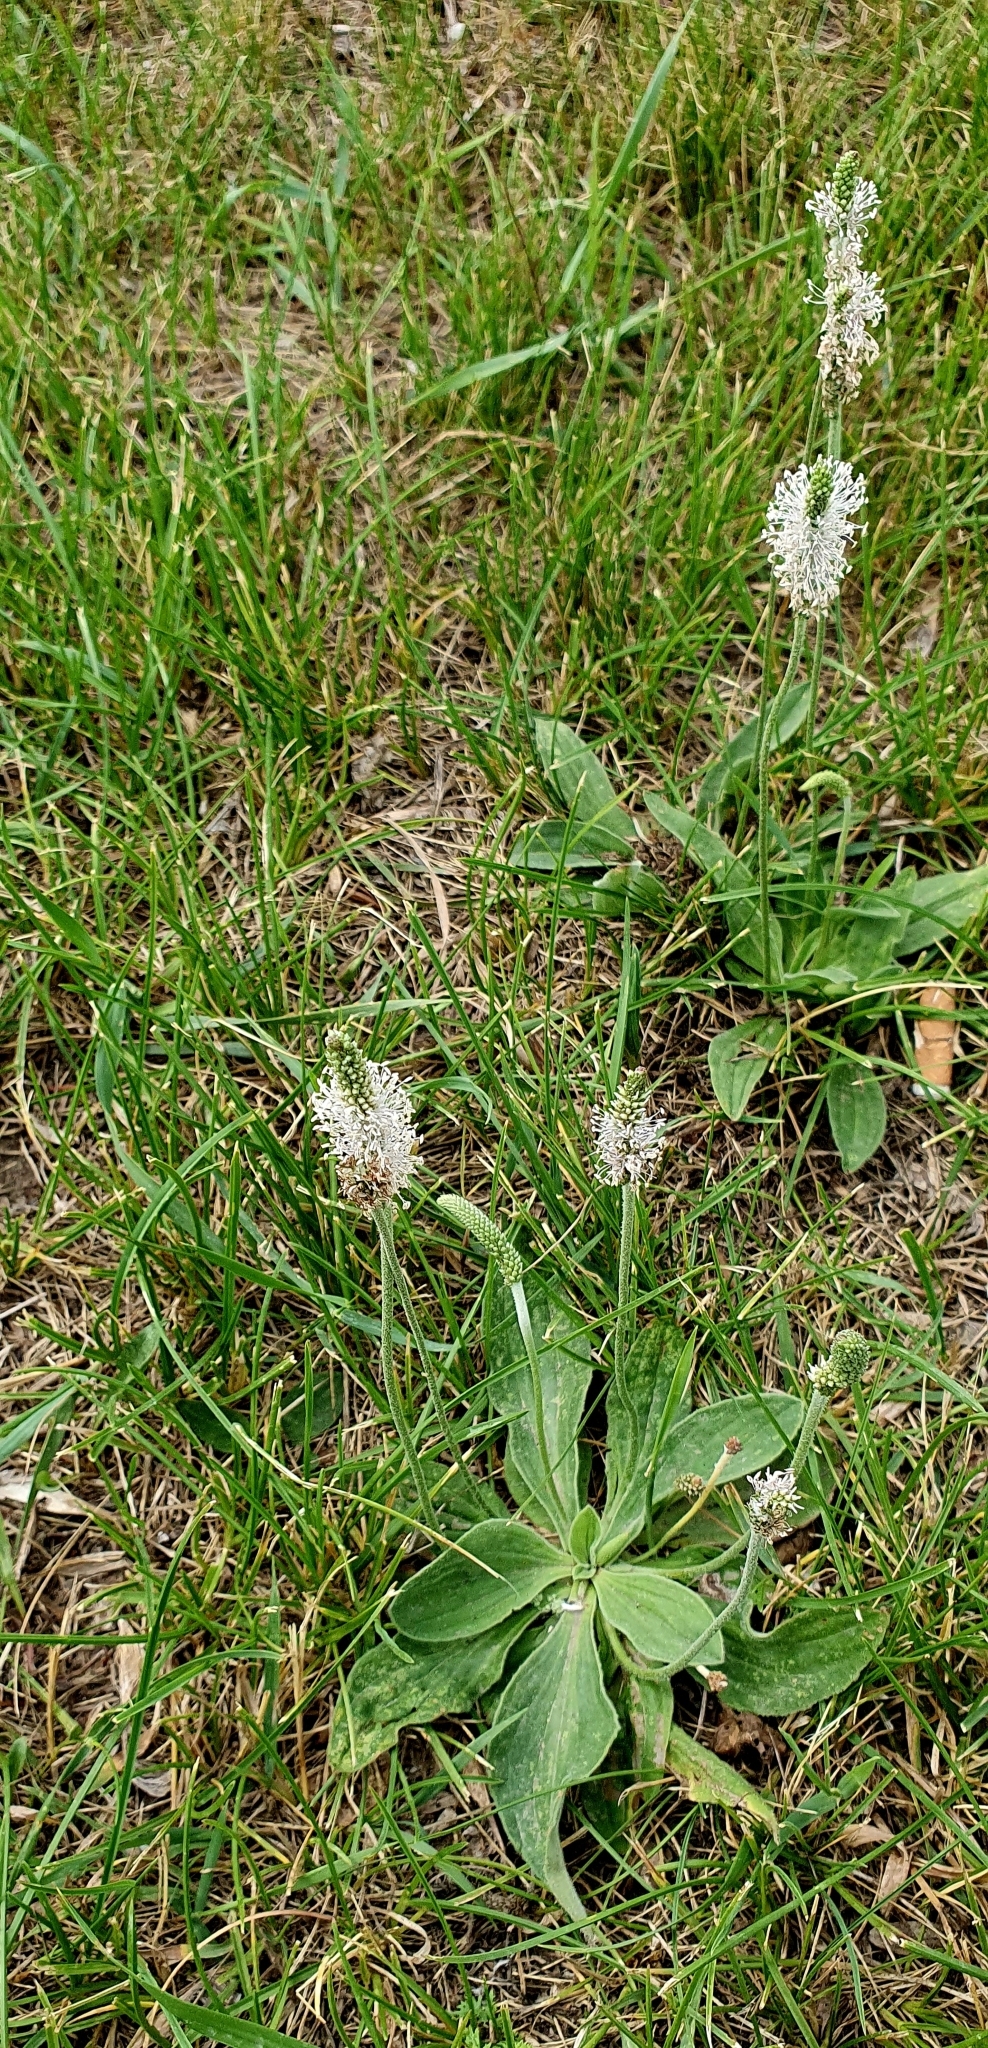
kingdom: Plantae
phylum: Tracheophyta
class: Magnoliopsida
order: Lamiales
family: Plantaginaceae
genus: Plantago
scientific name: Plantago media
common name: Hoary plantain
